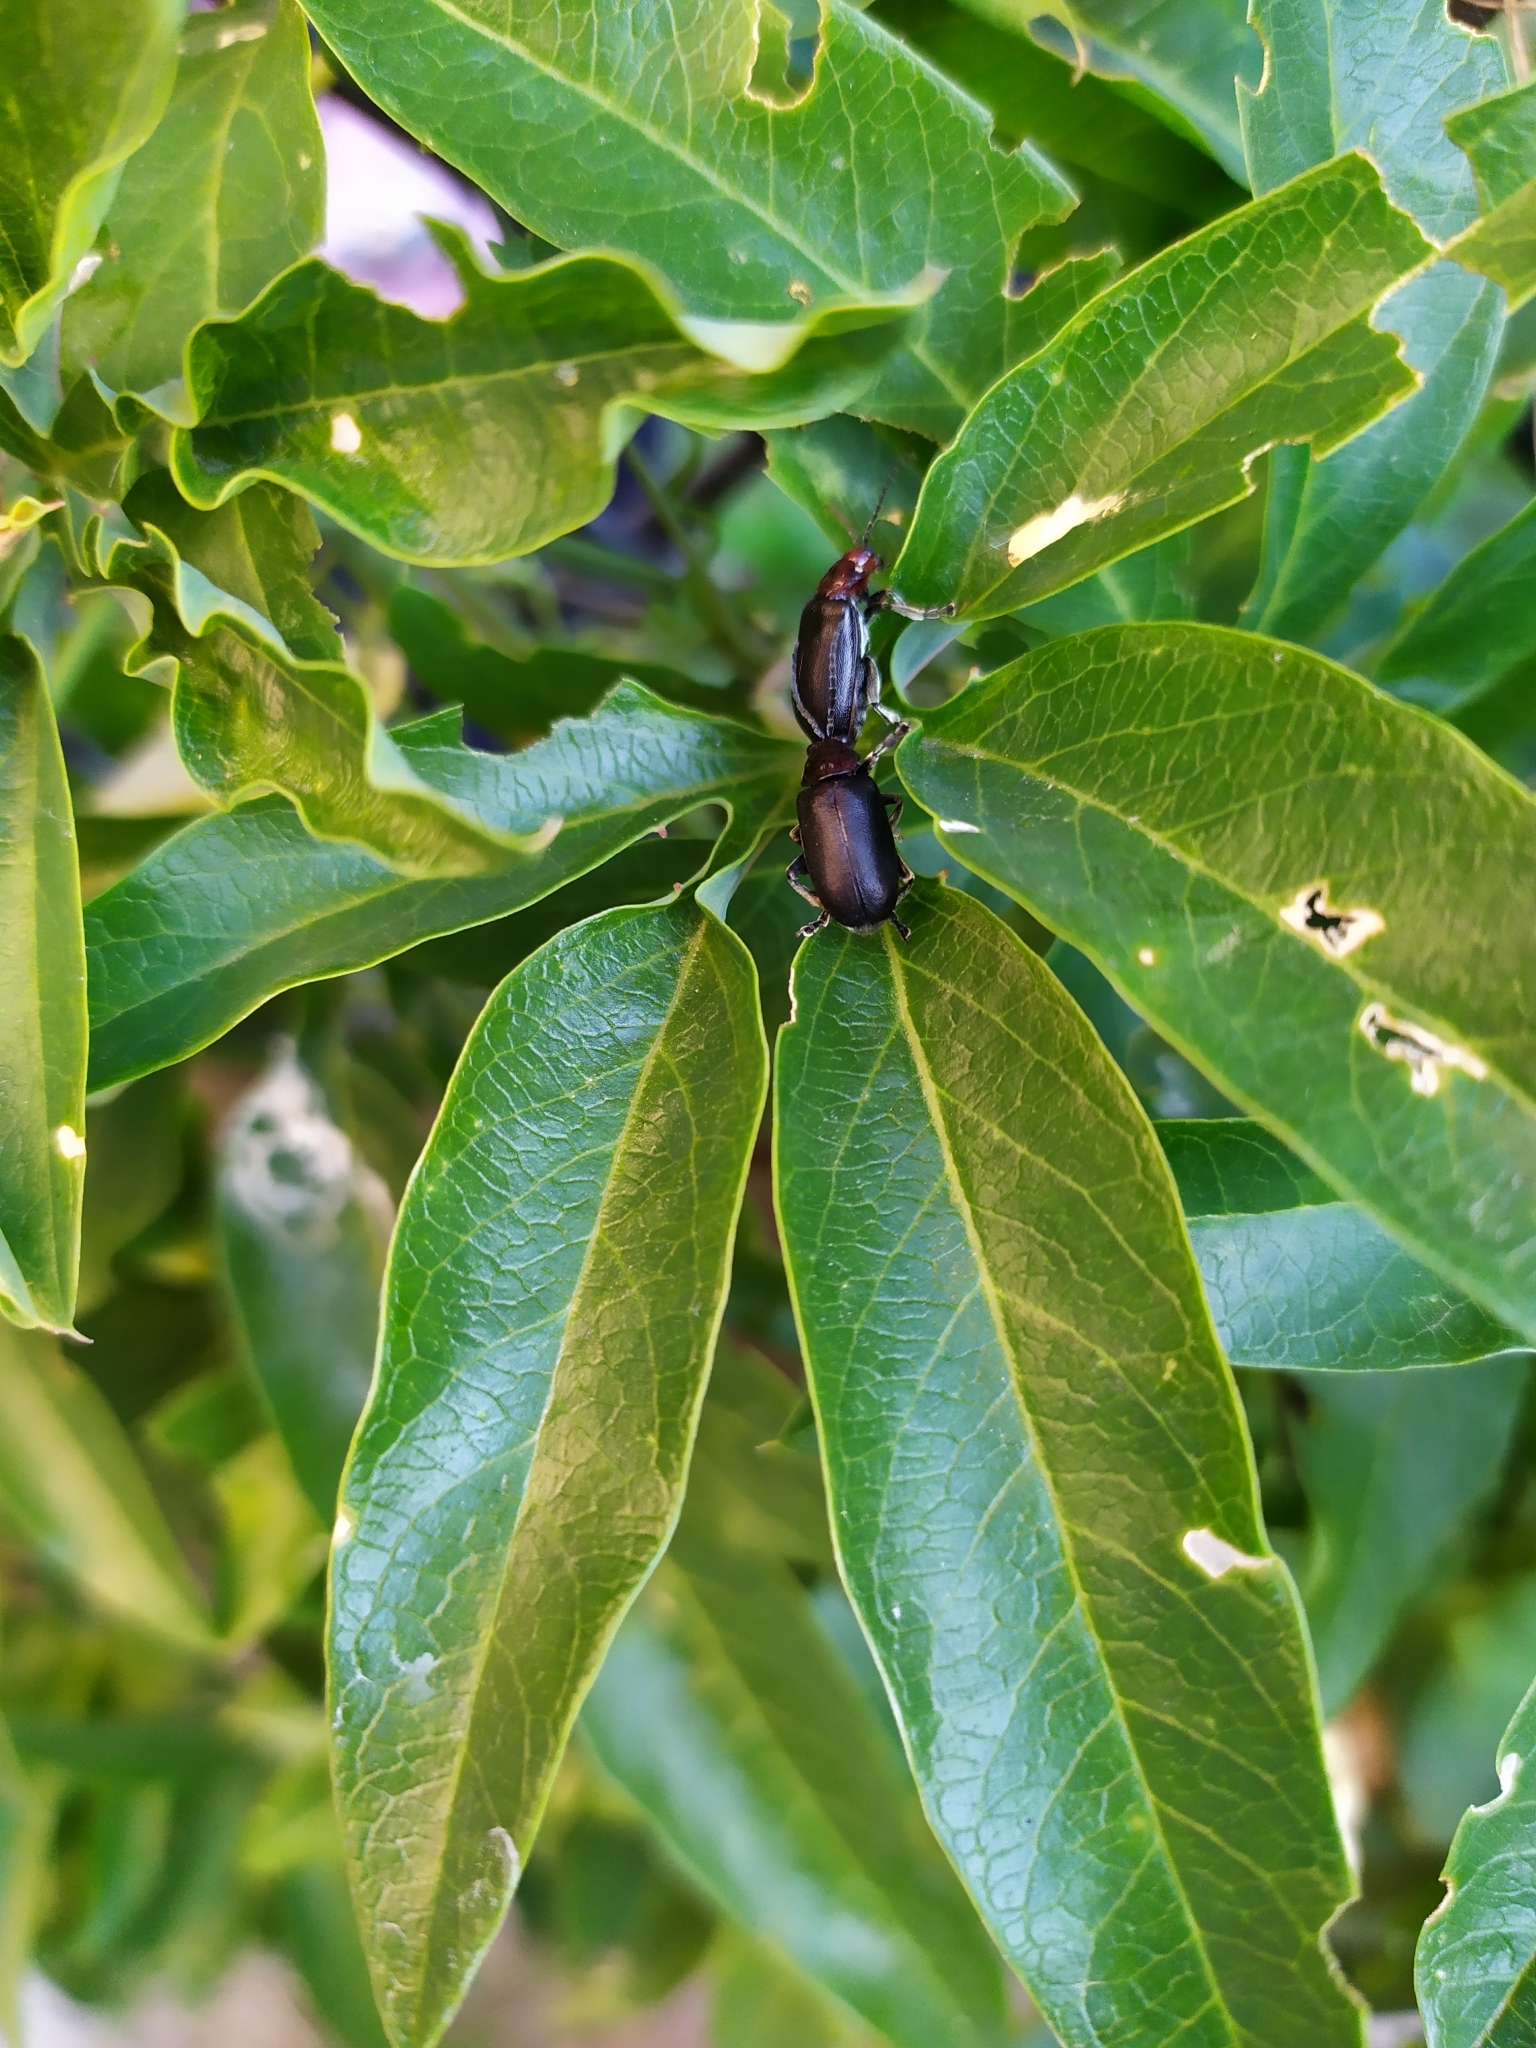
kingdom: Animalia
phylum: Arthropoda
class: Insecta
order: Coleoptera
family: Chrysomelidae
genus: Cacoscelis
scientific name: Cacoscelis
